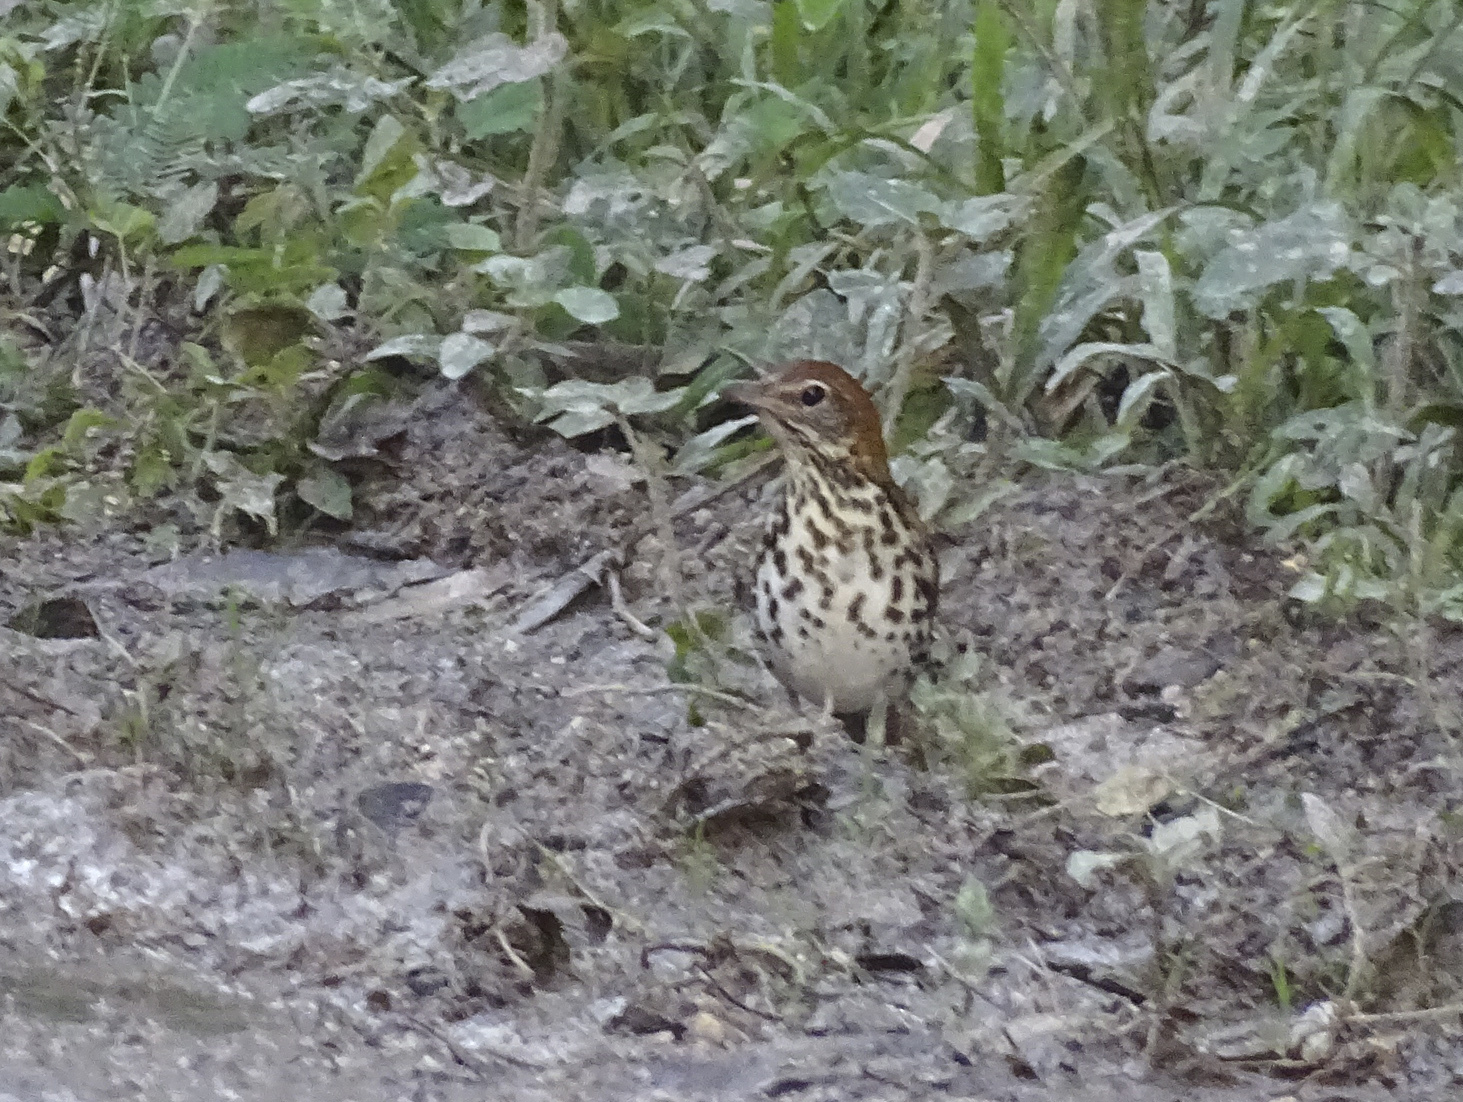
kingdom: Animalia
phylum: Chordata
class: Aves
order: Passeriformes
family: Turdidae
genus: Hylocichla
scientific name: Hylocichla mustelina
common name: Wood thrush
